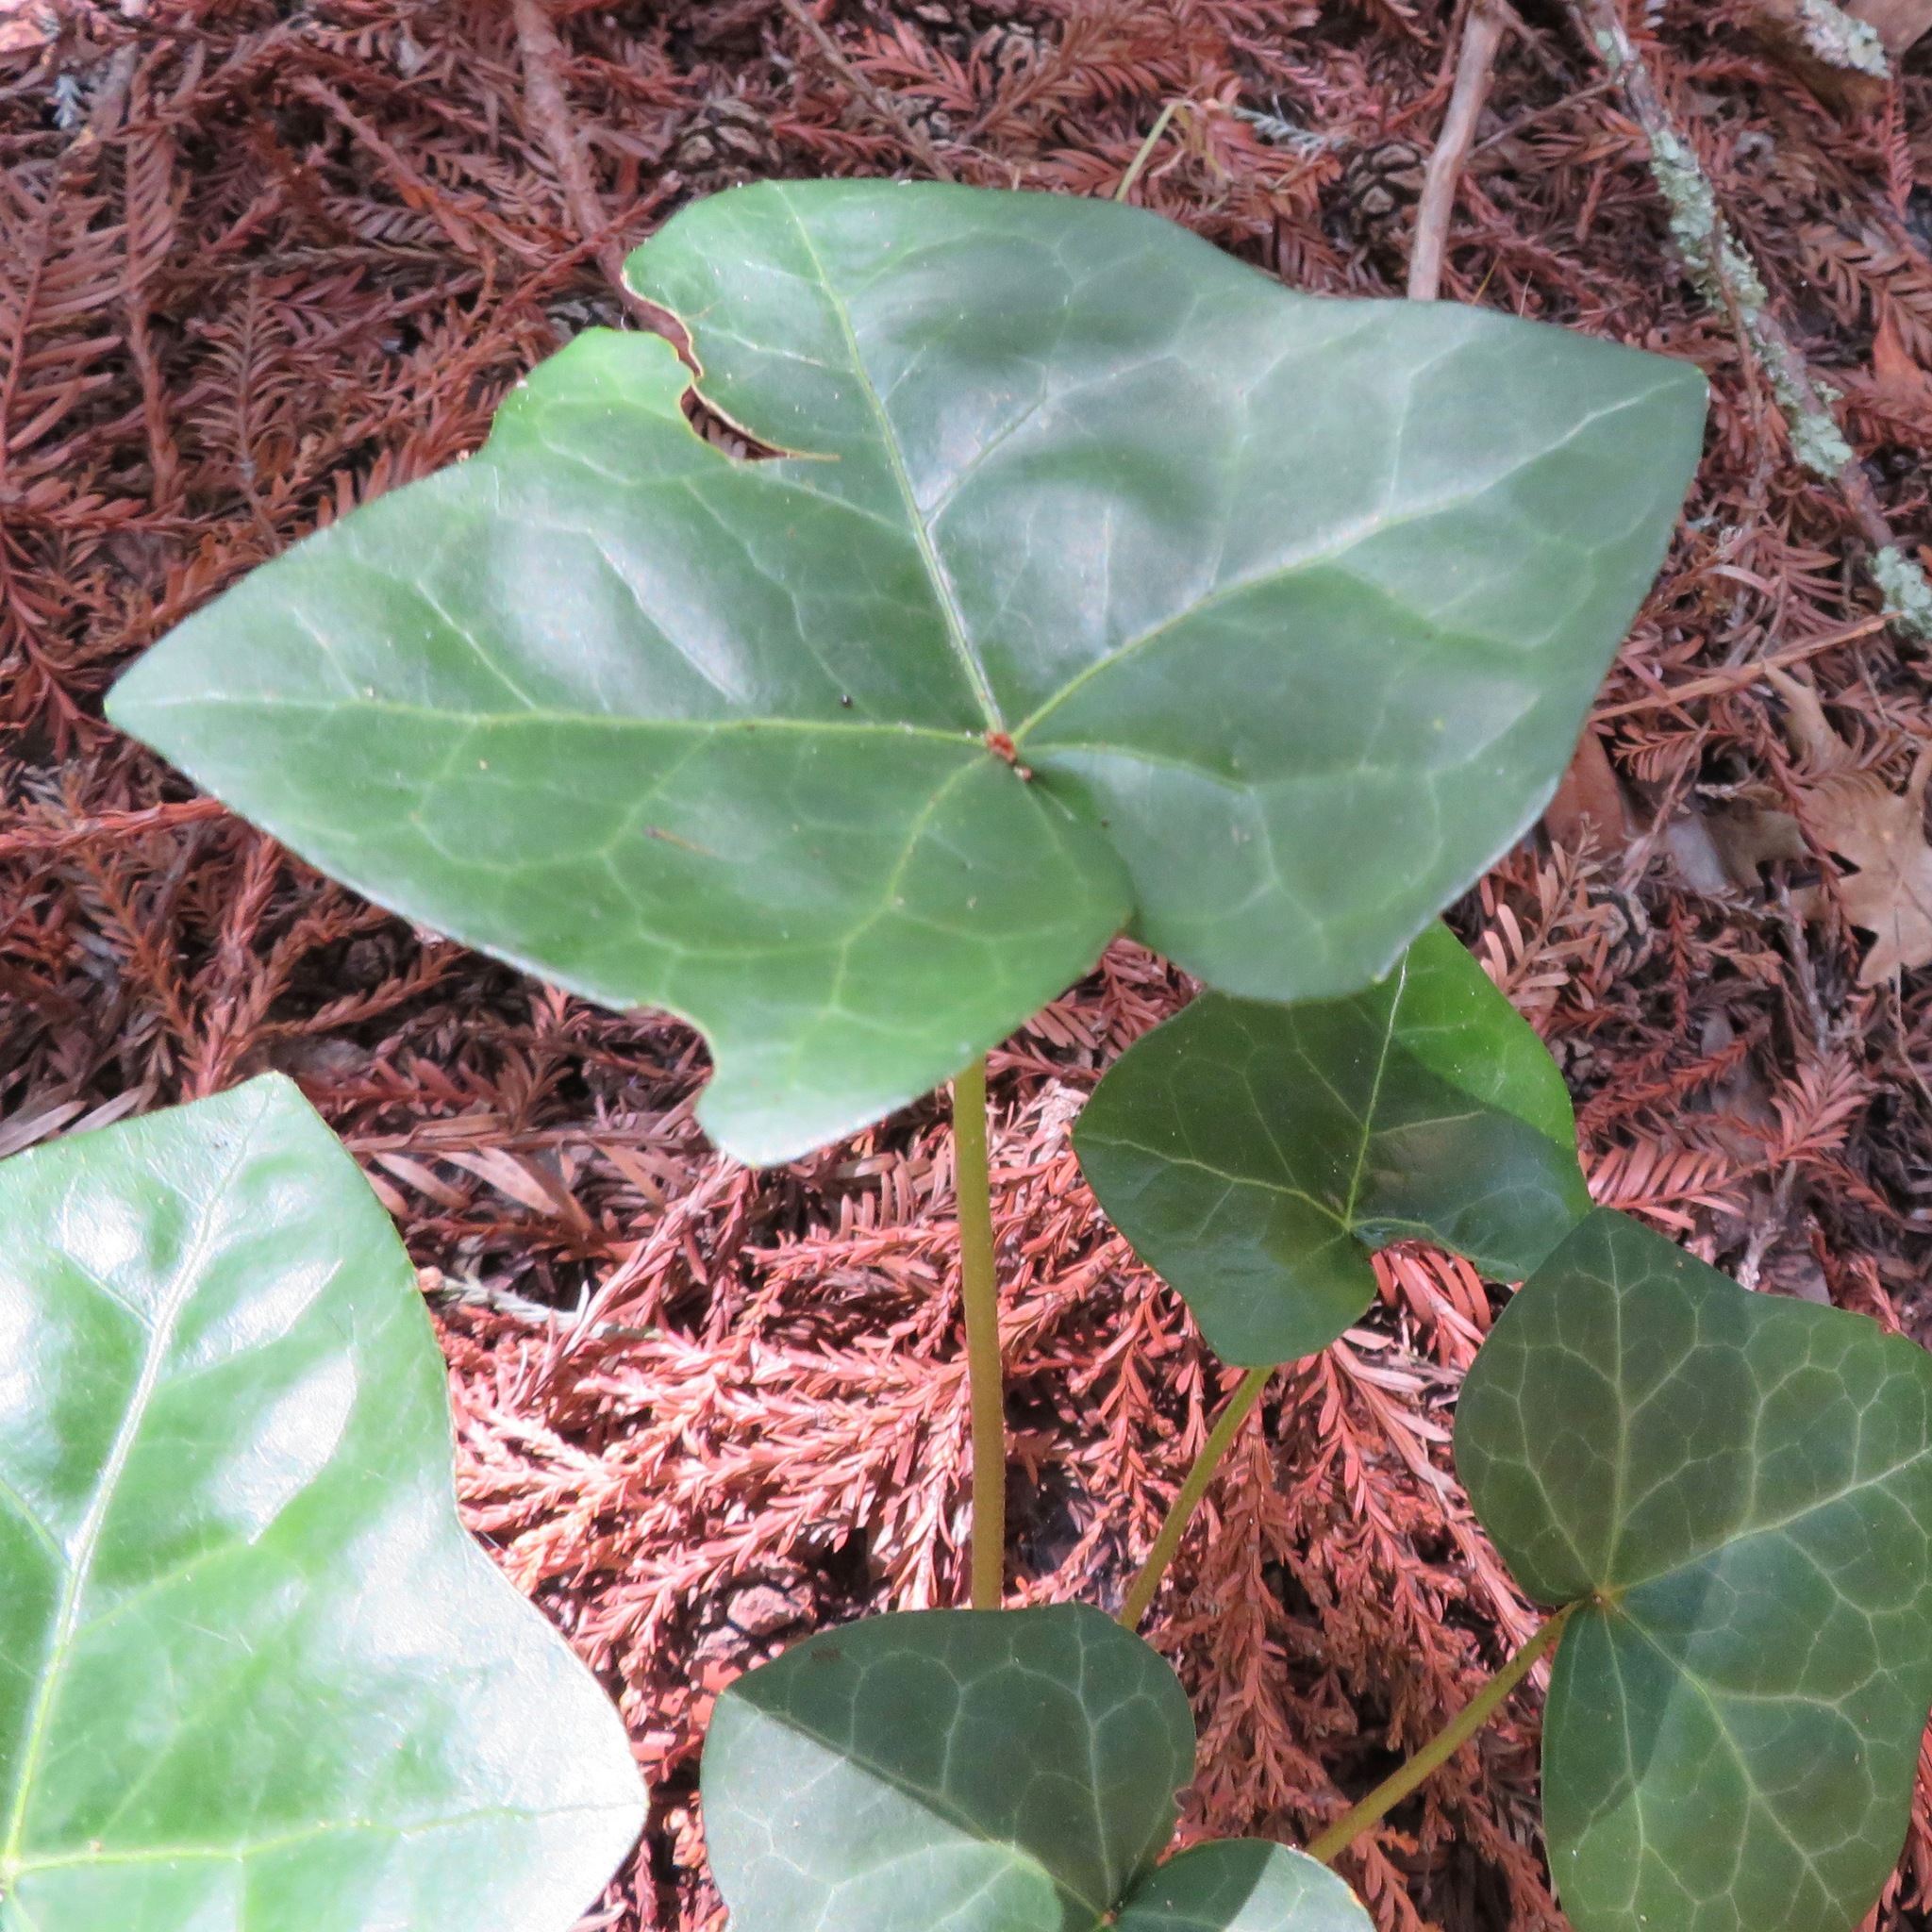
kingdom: Plantae
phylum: Tracheophyta
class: Magnoliopsida
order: Apiales
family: Araliaceae
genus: Hedera
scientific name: Hedera helix
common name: Ivy
